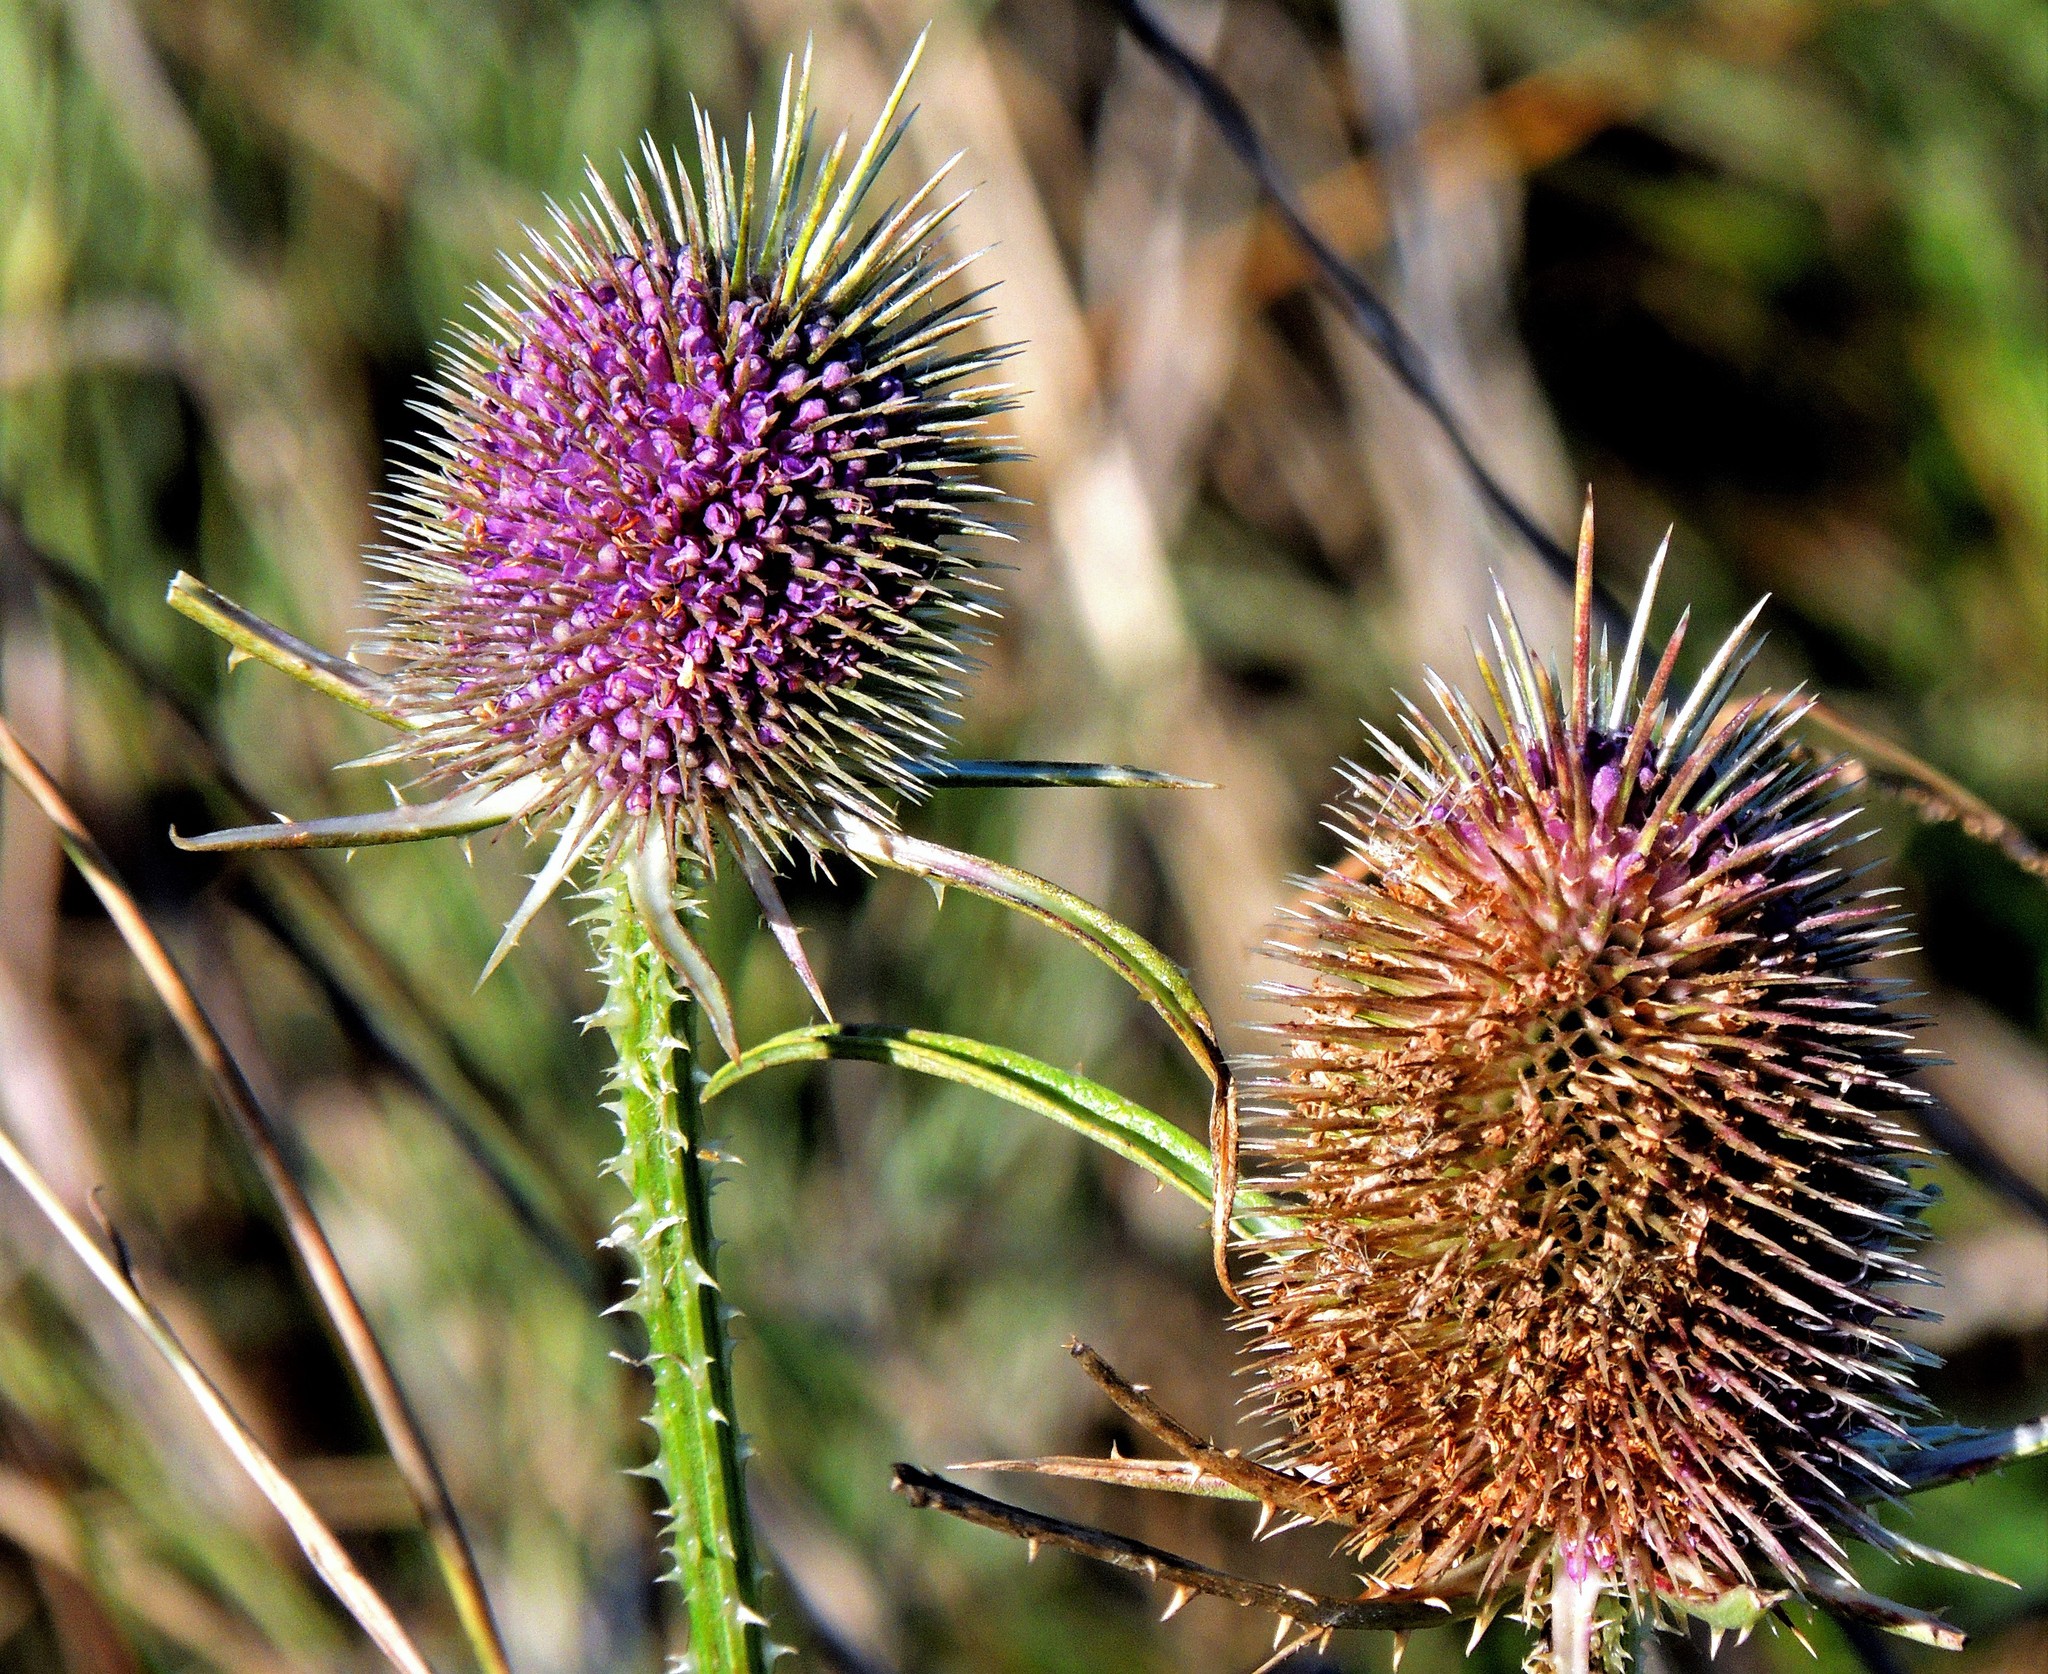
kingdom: Plantae
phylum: Tracheophyta
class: Magnoliopsida
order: Dipsacales
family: Caprifoliaceae
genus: Dipsacus
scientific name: Dipsacus fullonum
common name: Teasel
